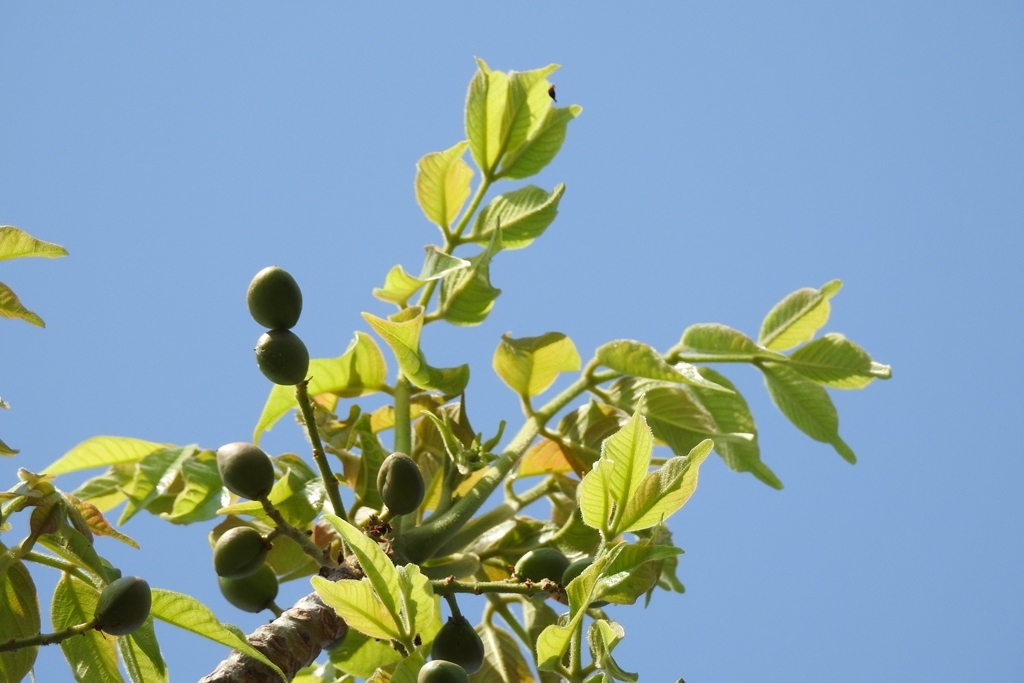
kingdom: Plantae
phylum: Tracheophyta
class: Magnoliopsida
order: Sapindales
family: Burseraceae
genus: Bursera
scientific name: Bursera simaruba
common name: Turpentine tree
